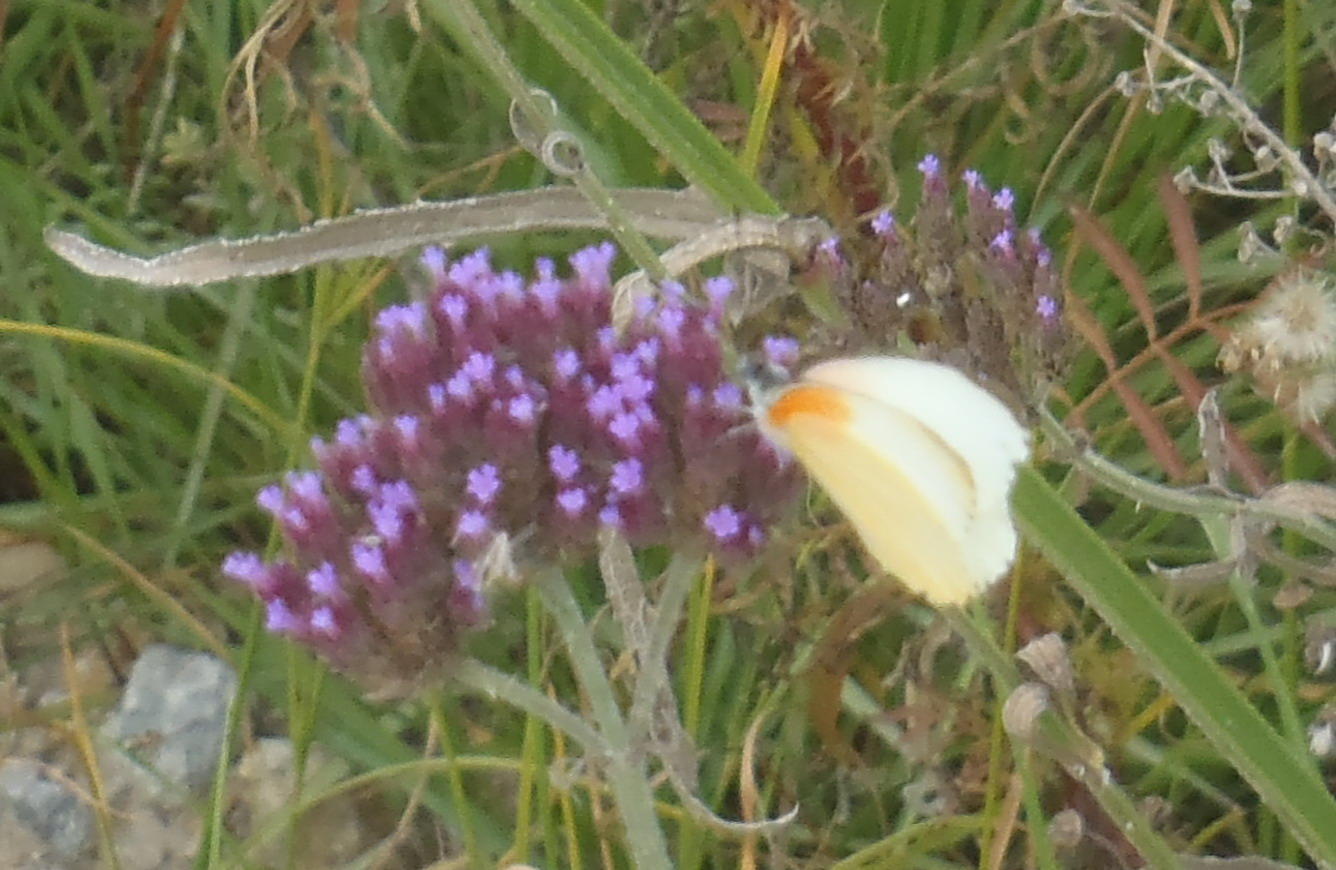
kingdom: Animalia
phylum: Arthropoda
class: Insecta
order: Lepidoptera
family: Pieridae
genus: Mylothris
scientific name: Mylothris agathina
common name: Eastern dotted border
